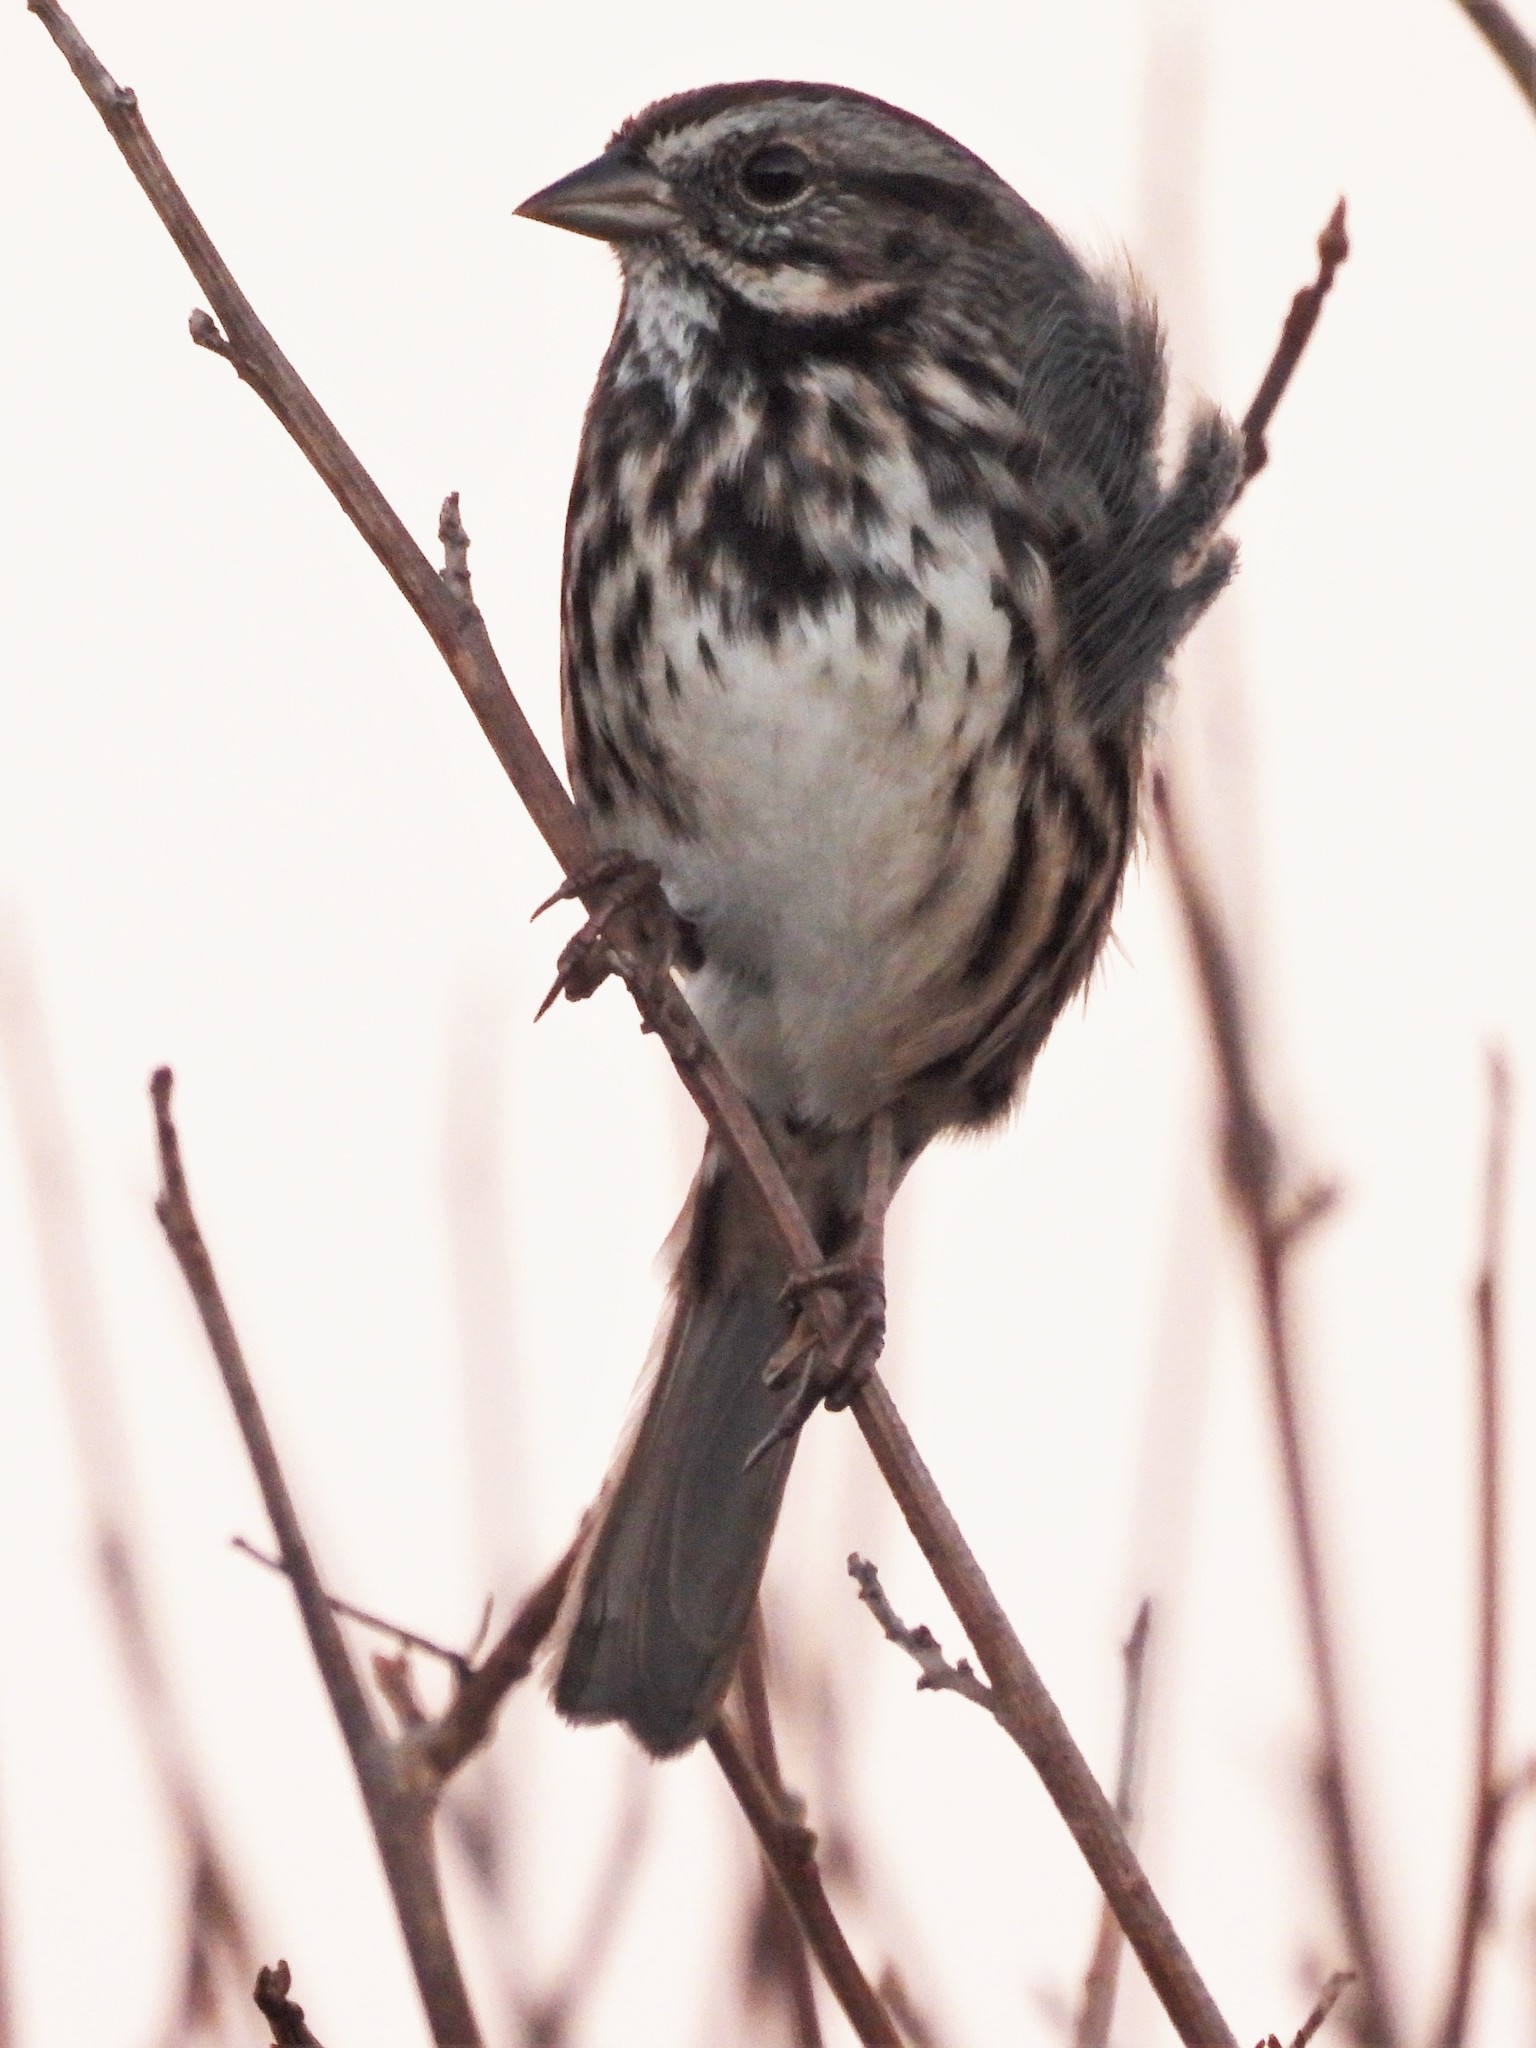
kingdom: Animalia
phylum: Chordata
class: Aves
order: Passeriformes
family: Passerellidae
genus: Melospiza
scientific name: Melospiza melodia
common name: Song sparrow
